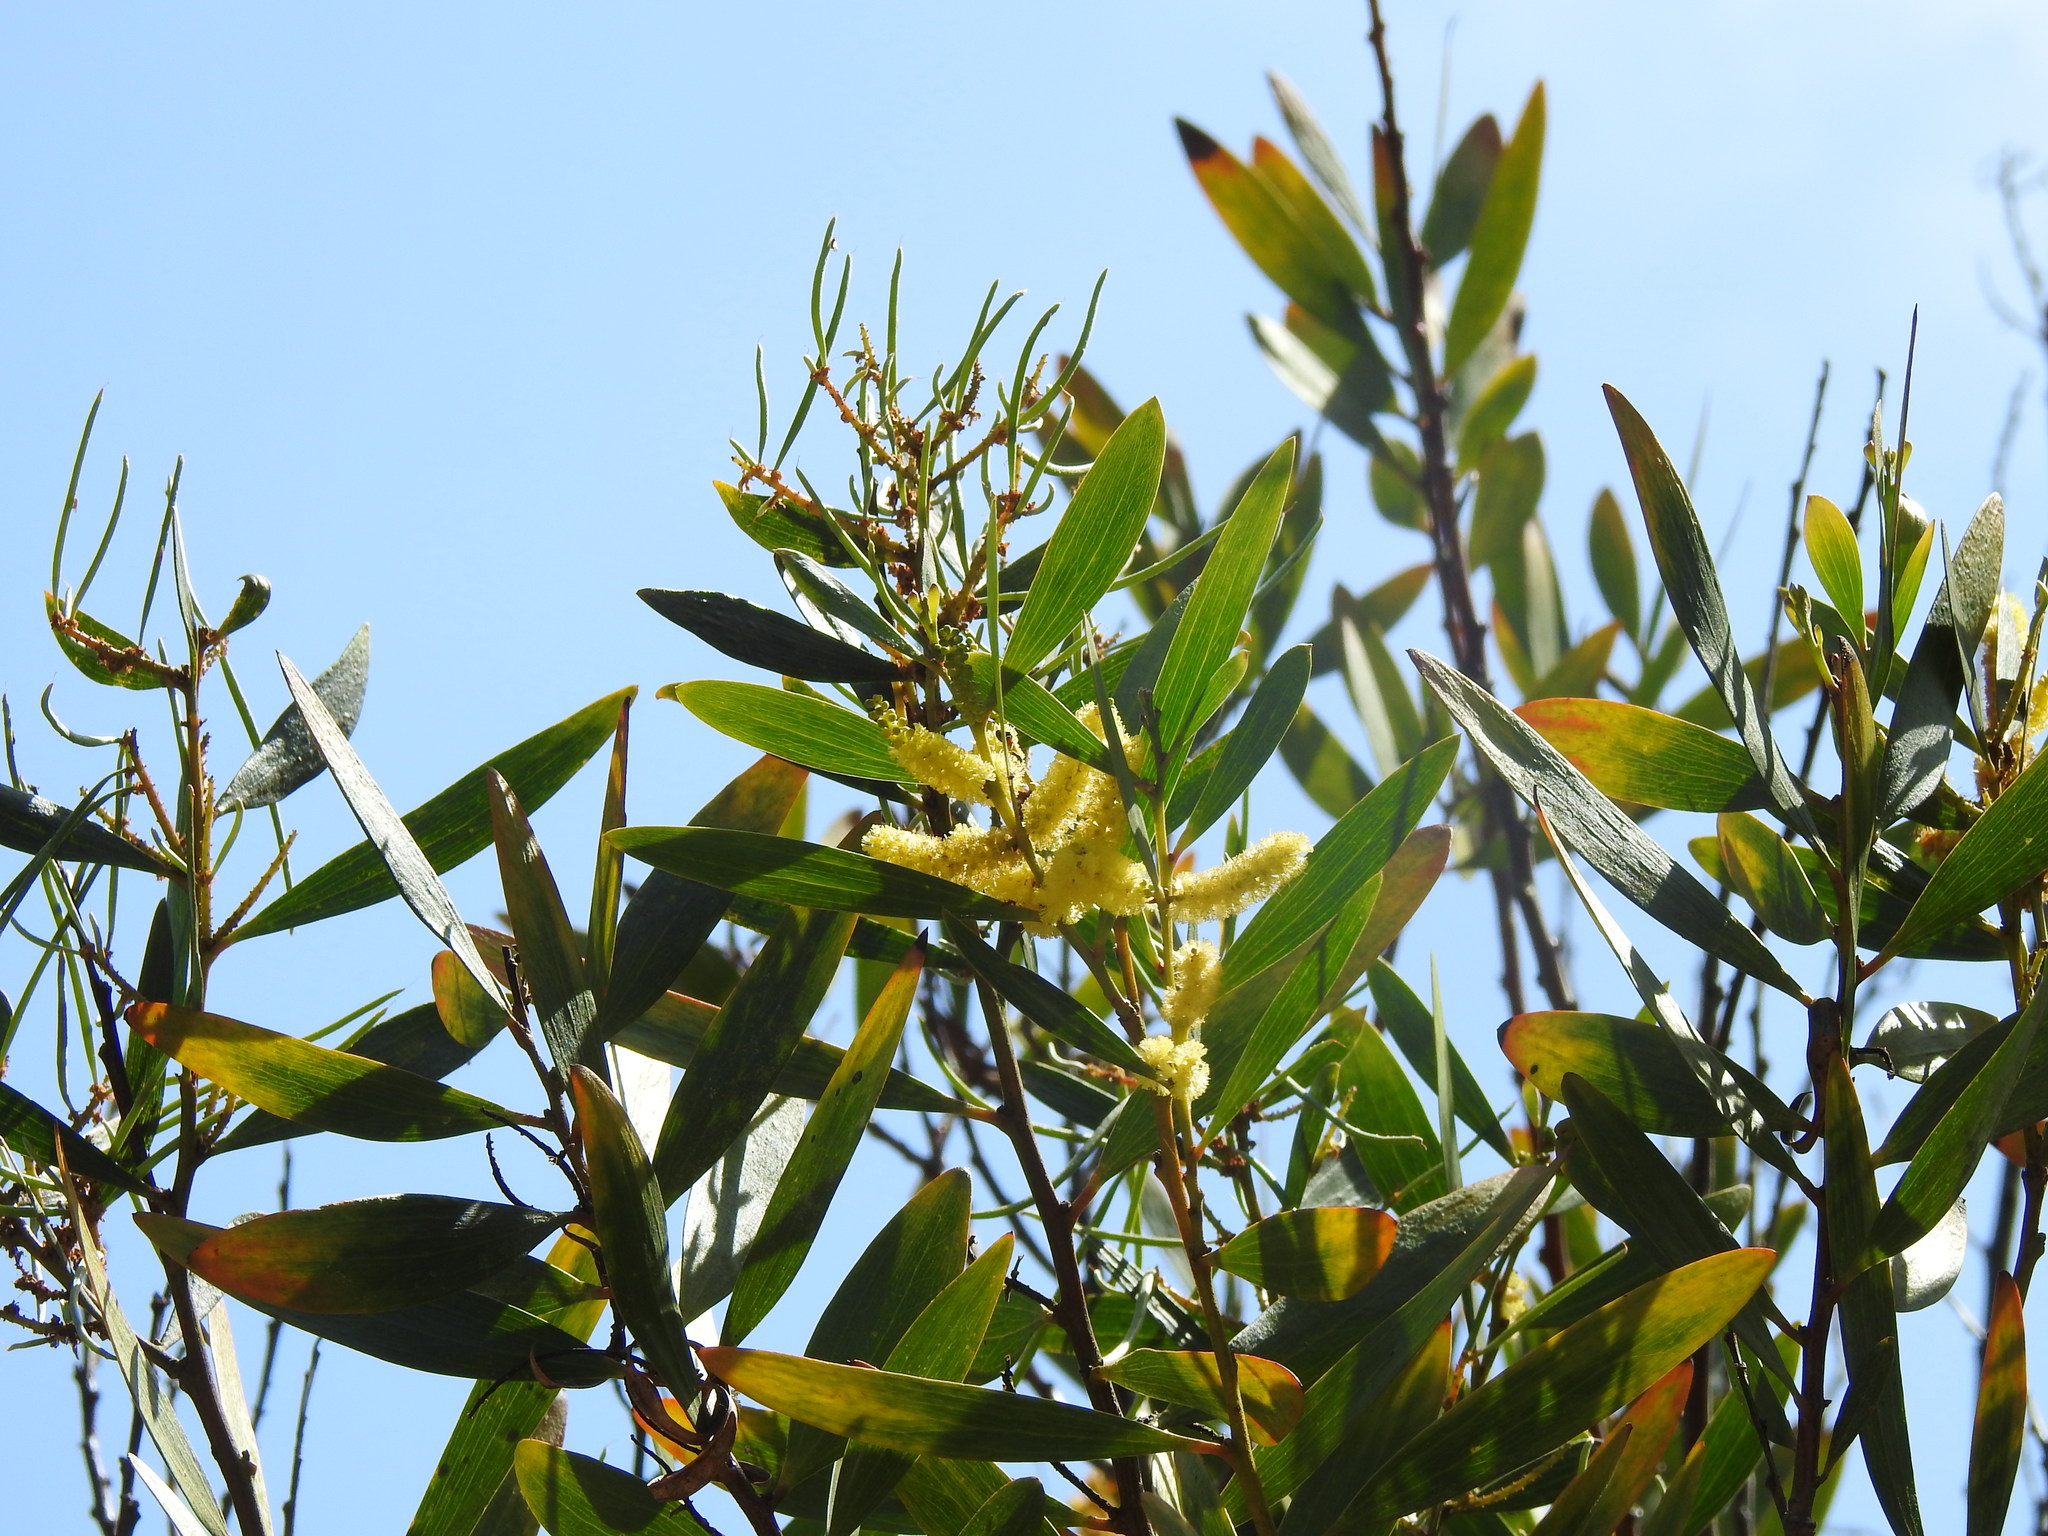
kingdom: Plantae
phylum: Tracheophyta
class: Magnoliopsida
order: Fabales
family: Fabaceae
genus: Acacia
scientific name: Acacia longifolia
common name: Sydney golden wattle
